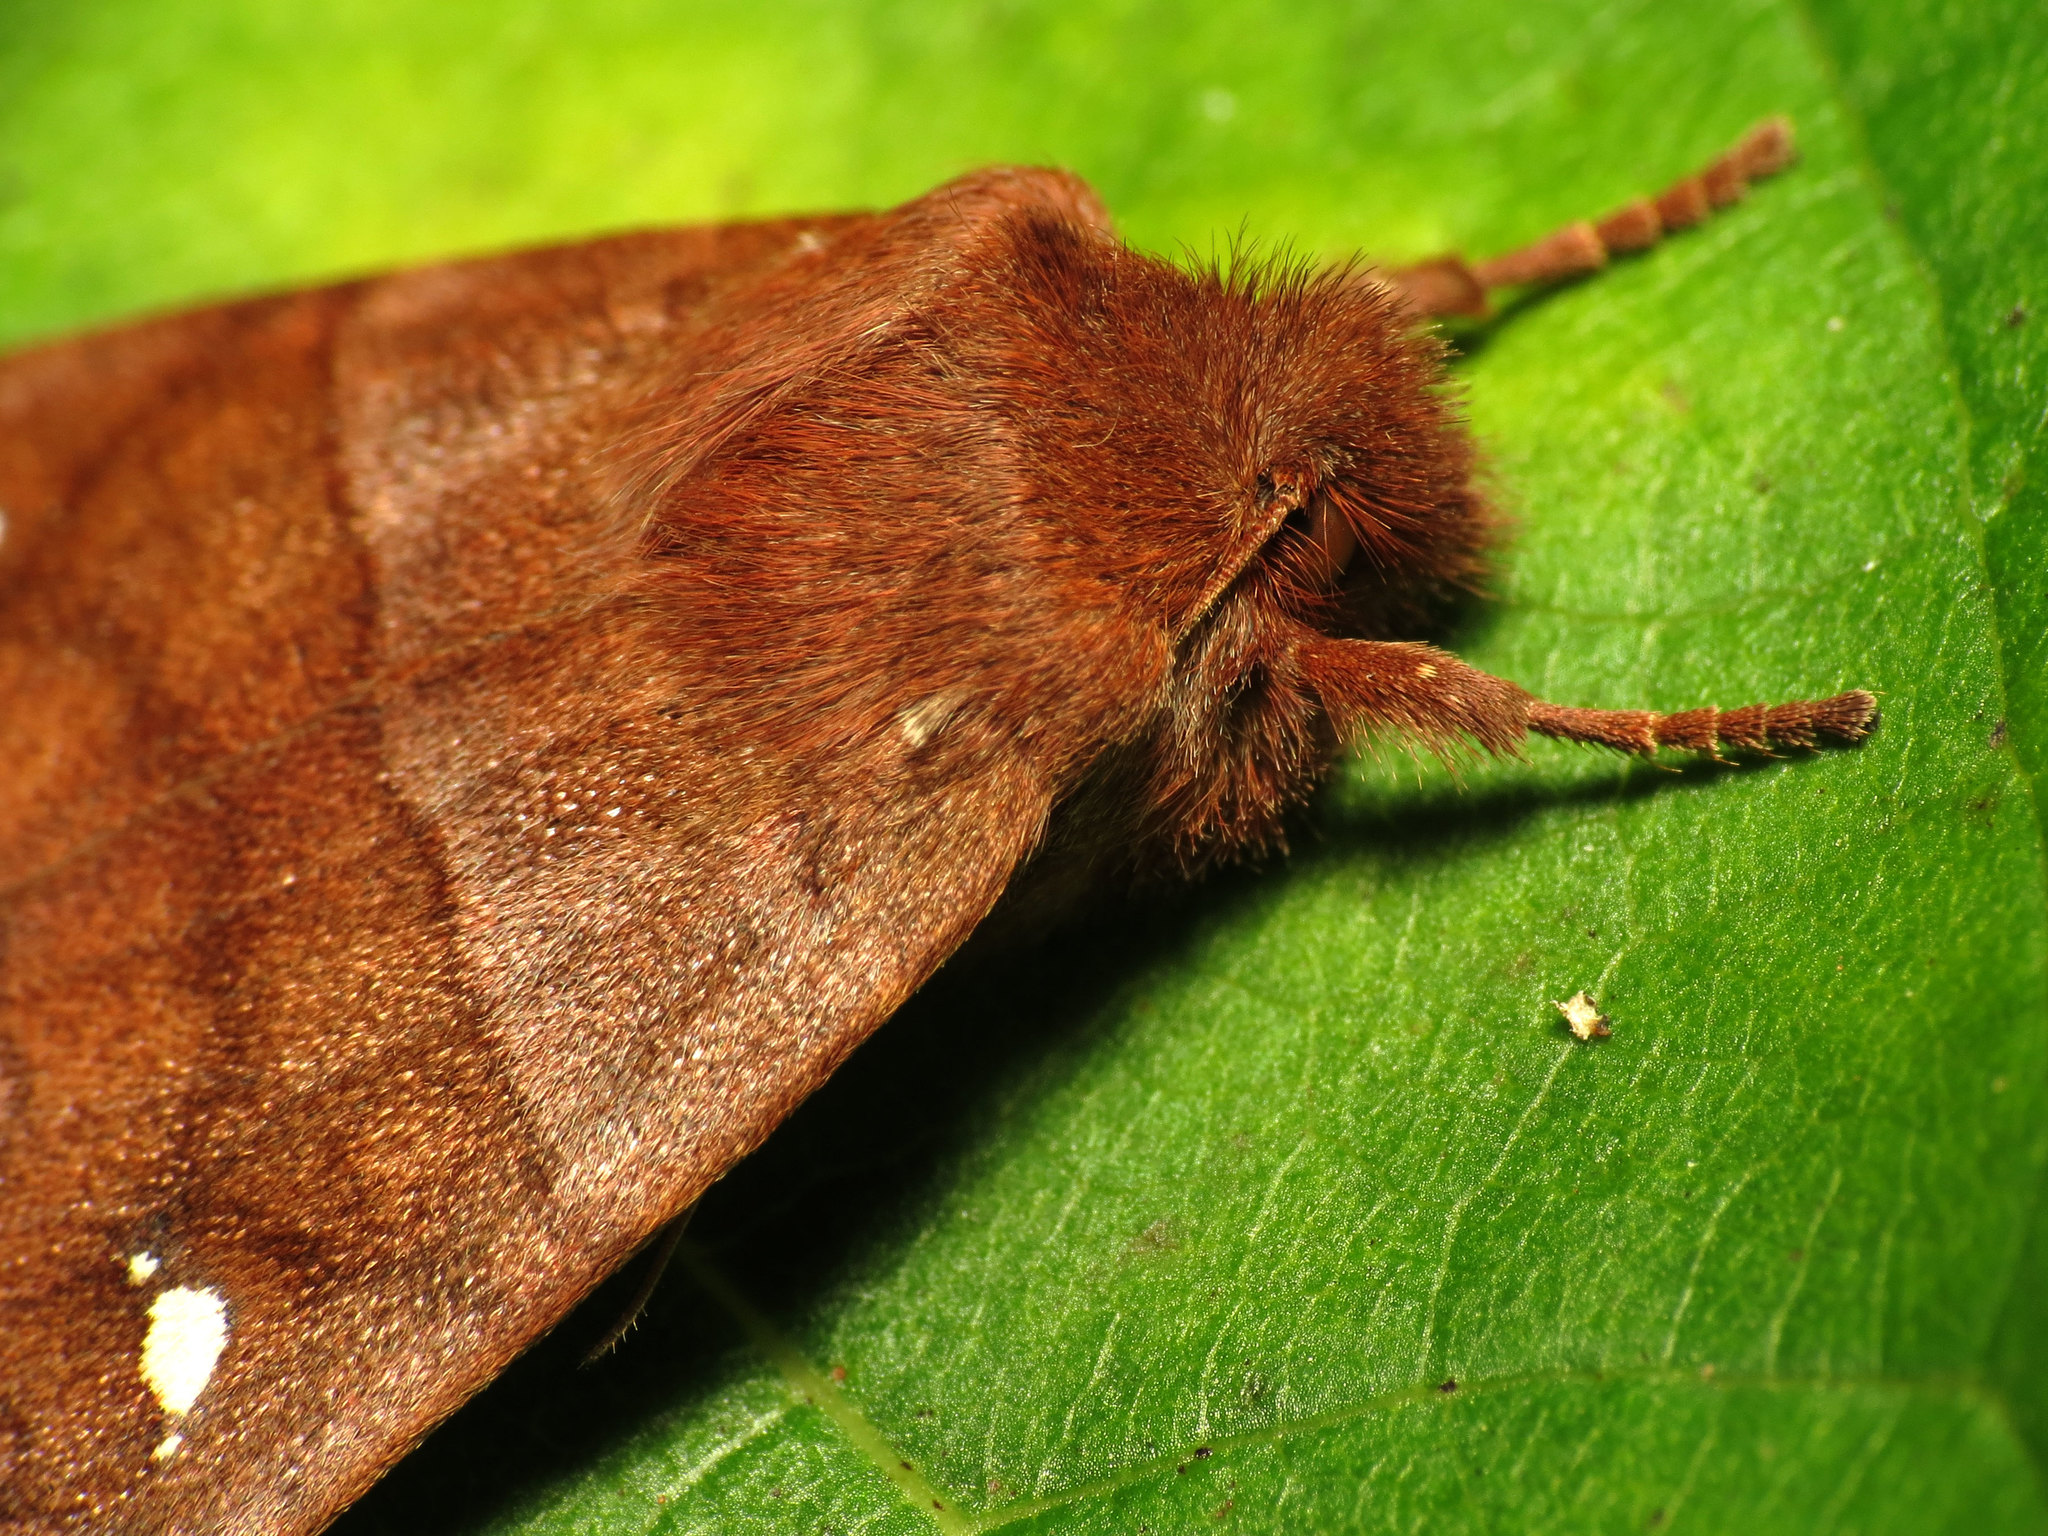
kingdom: Animalia
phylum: Arthropoda
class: Insecta
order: Lepidoptera
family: Noctuidae
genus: Eupsilia
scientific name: Eupsilia vinulenta
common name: Straight-toothed sallow
